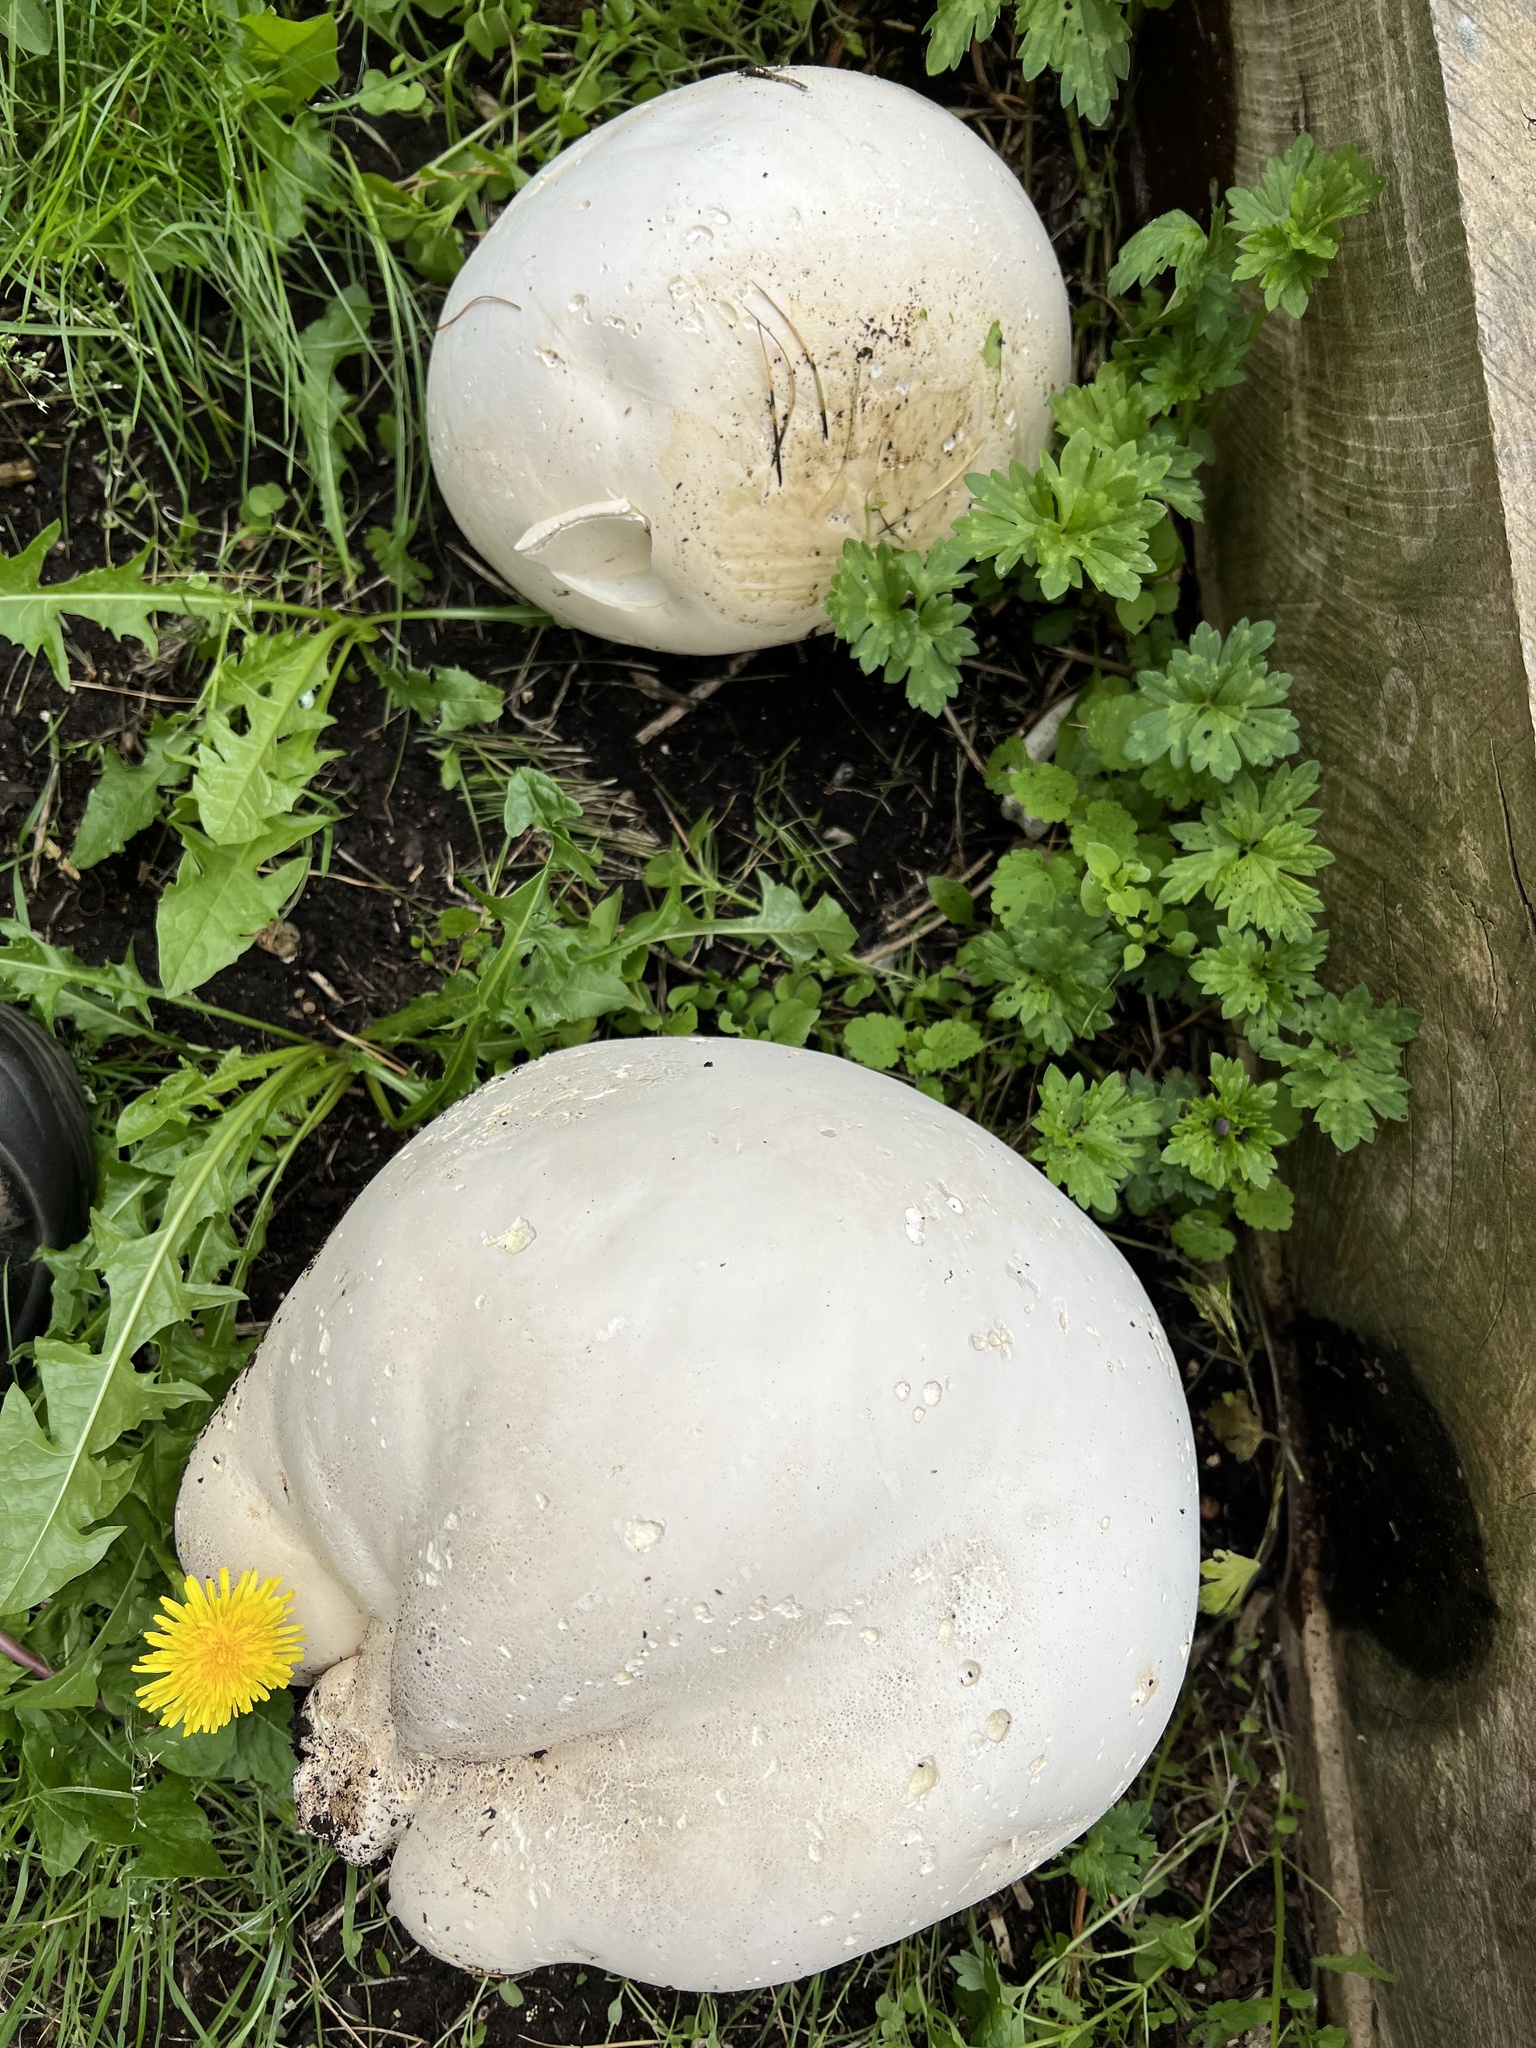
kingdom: Fungi
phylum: Basidiomycota
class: Agaricomycetes
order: Agaricales
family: Lycoperdaceae
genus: Calvatia
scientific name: Calvatia gigantea
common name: Giant puffball
